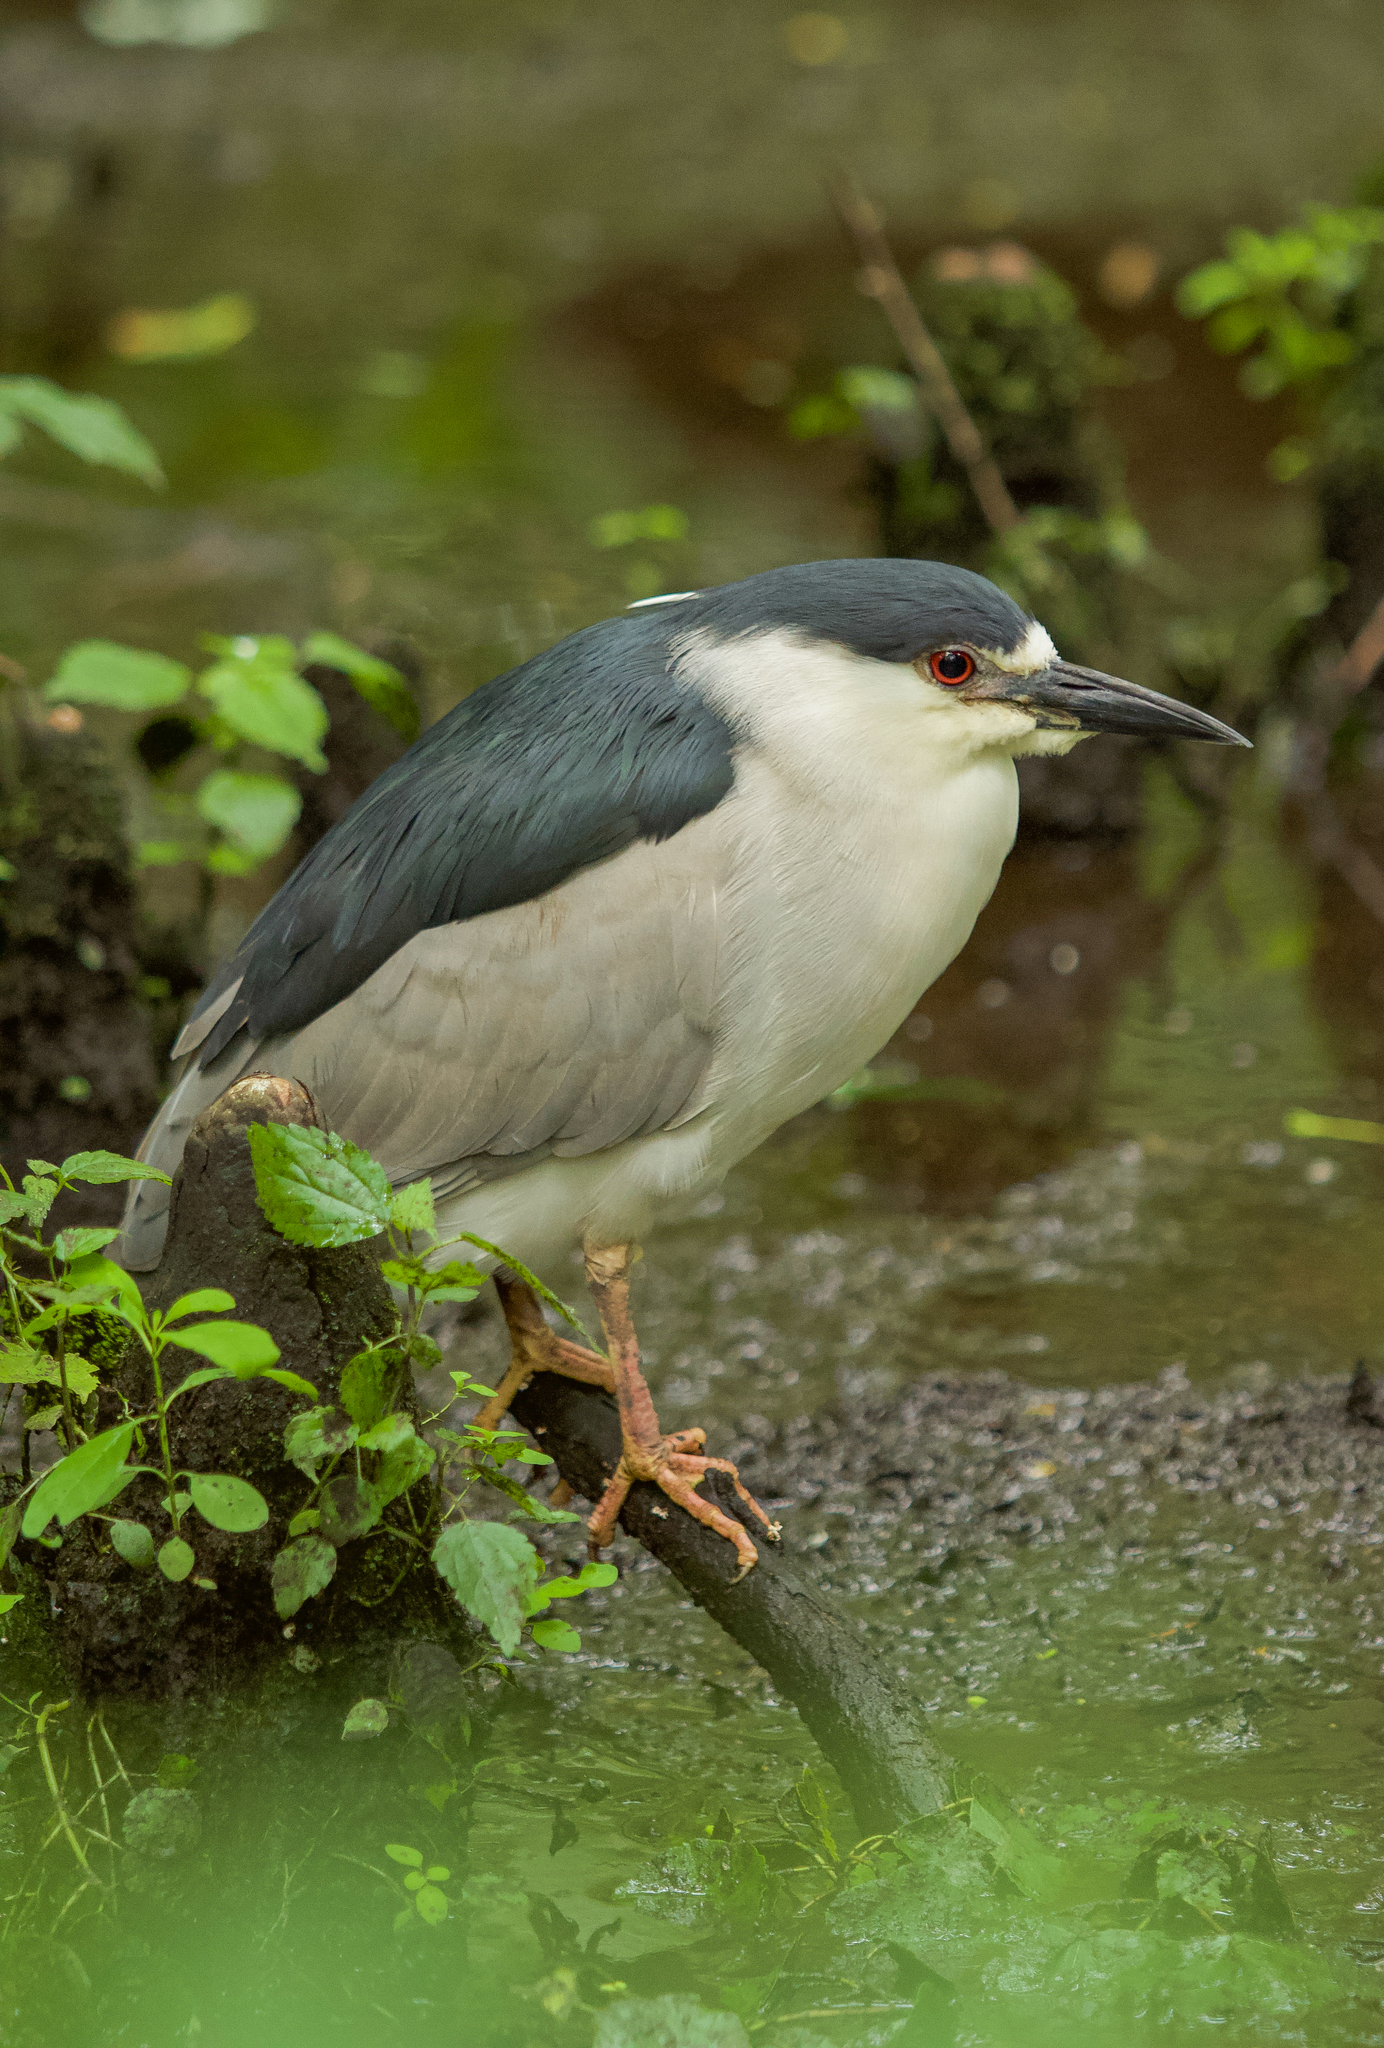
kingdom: Animalia
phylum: Chordata
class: Aves
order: Pelecaniformes
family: Ardeidae
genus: Nycticorax
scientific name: Nycticorax nycticorax
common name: Black-crowned night heron
